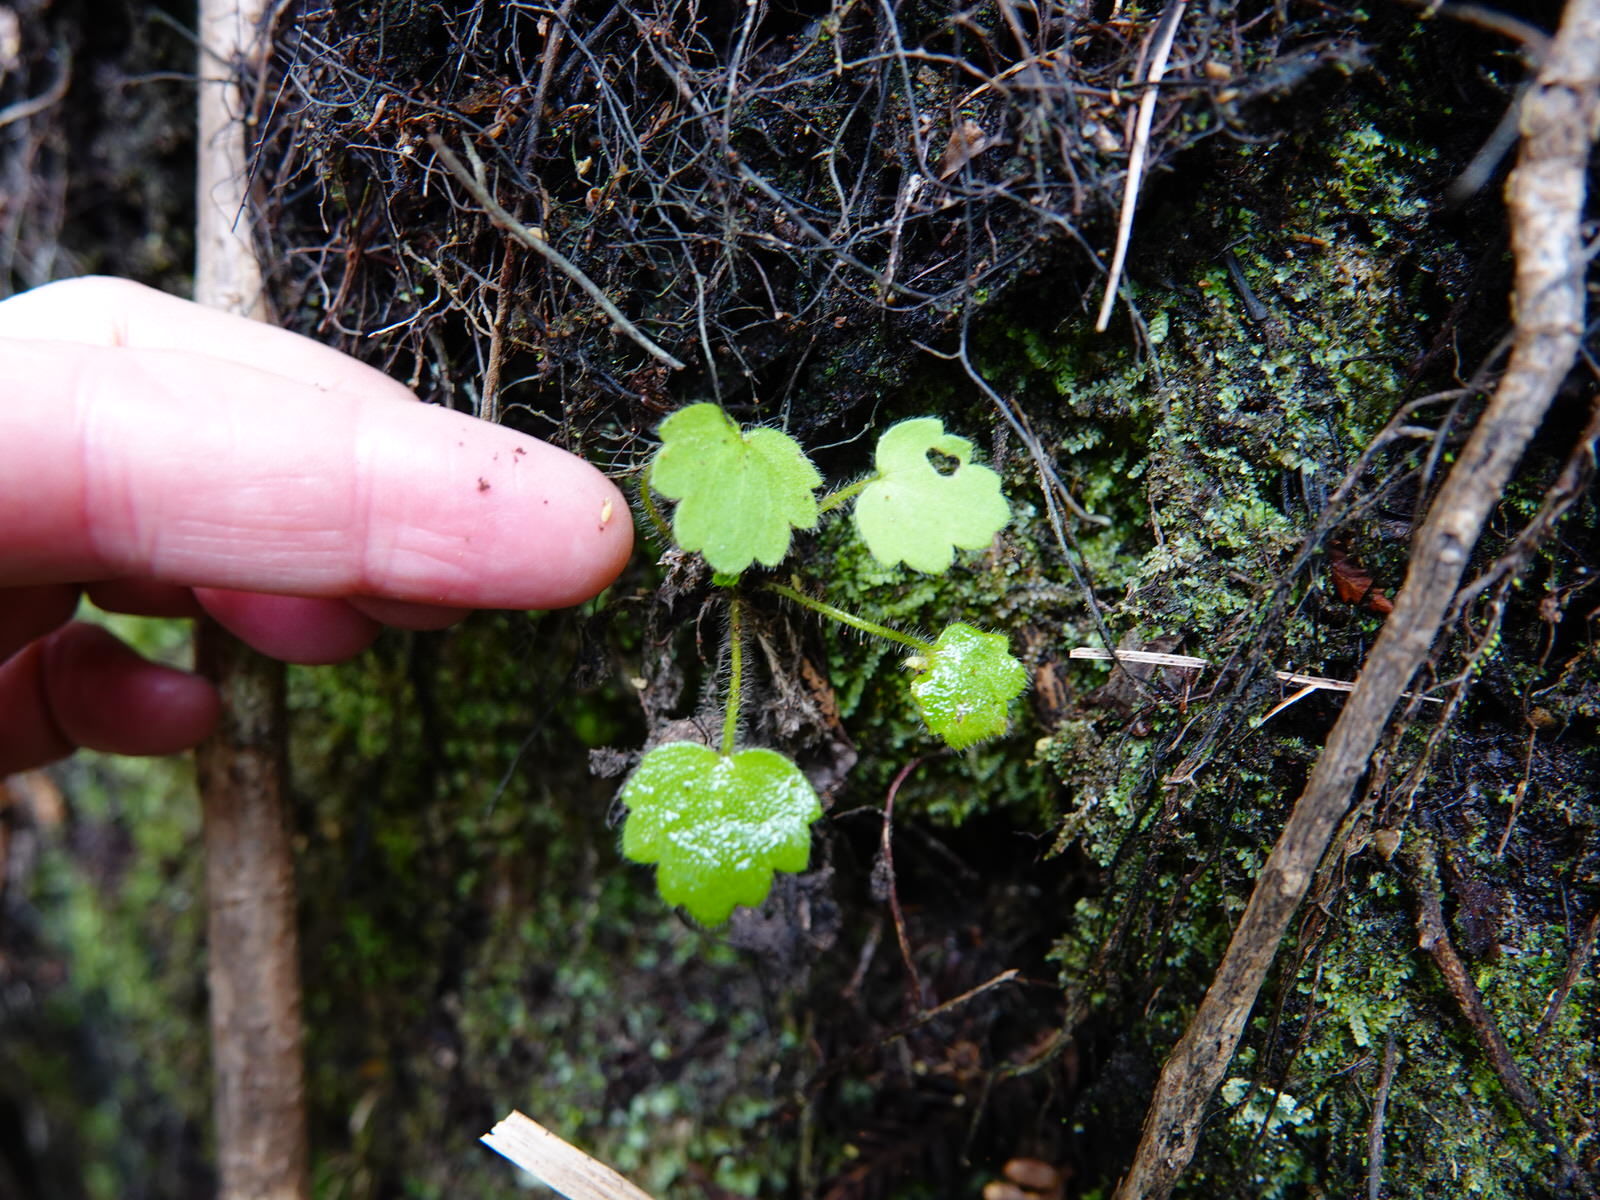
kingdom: Plantae
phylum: Tracheophyta
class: Magnoliopsida
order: Ranunculales
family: Ranunculaceae
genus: Ranunculus
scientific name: Ranunculus reflexus
